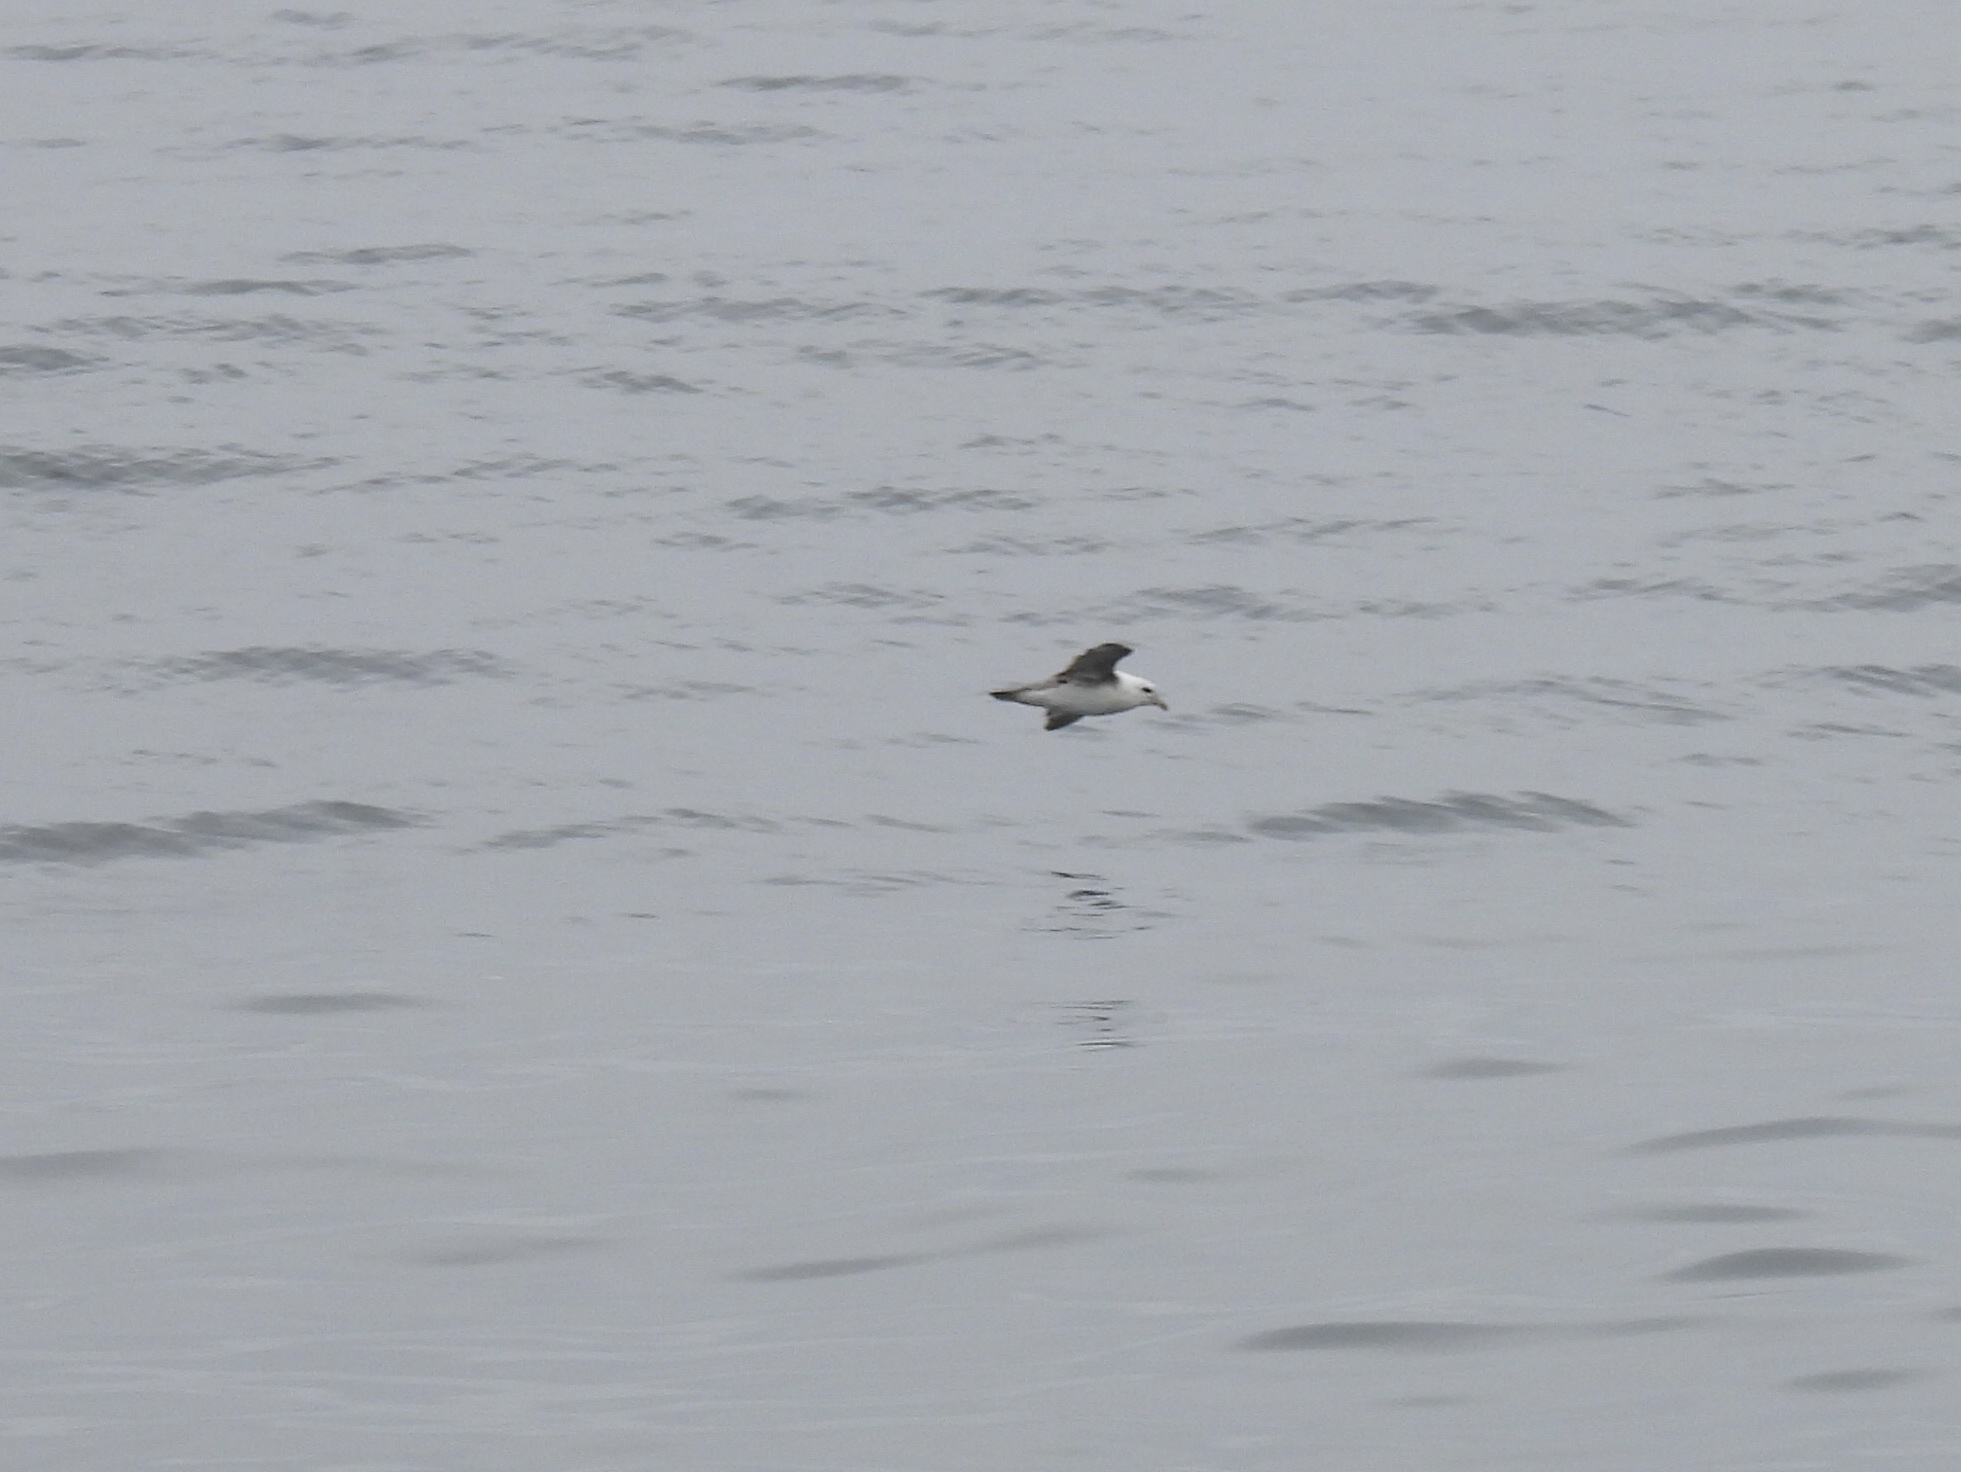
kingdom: Animalia
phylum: Chordata
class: Aves
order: Procellariiformes
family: Procellariidae
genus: Fulmarus
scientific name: Fulmarus glacialis
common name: Northern fulmar
